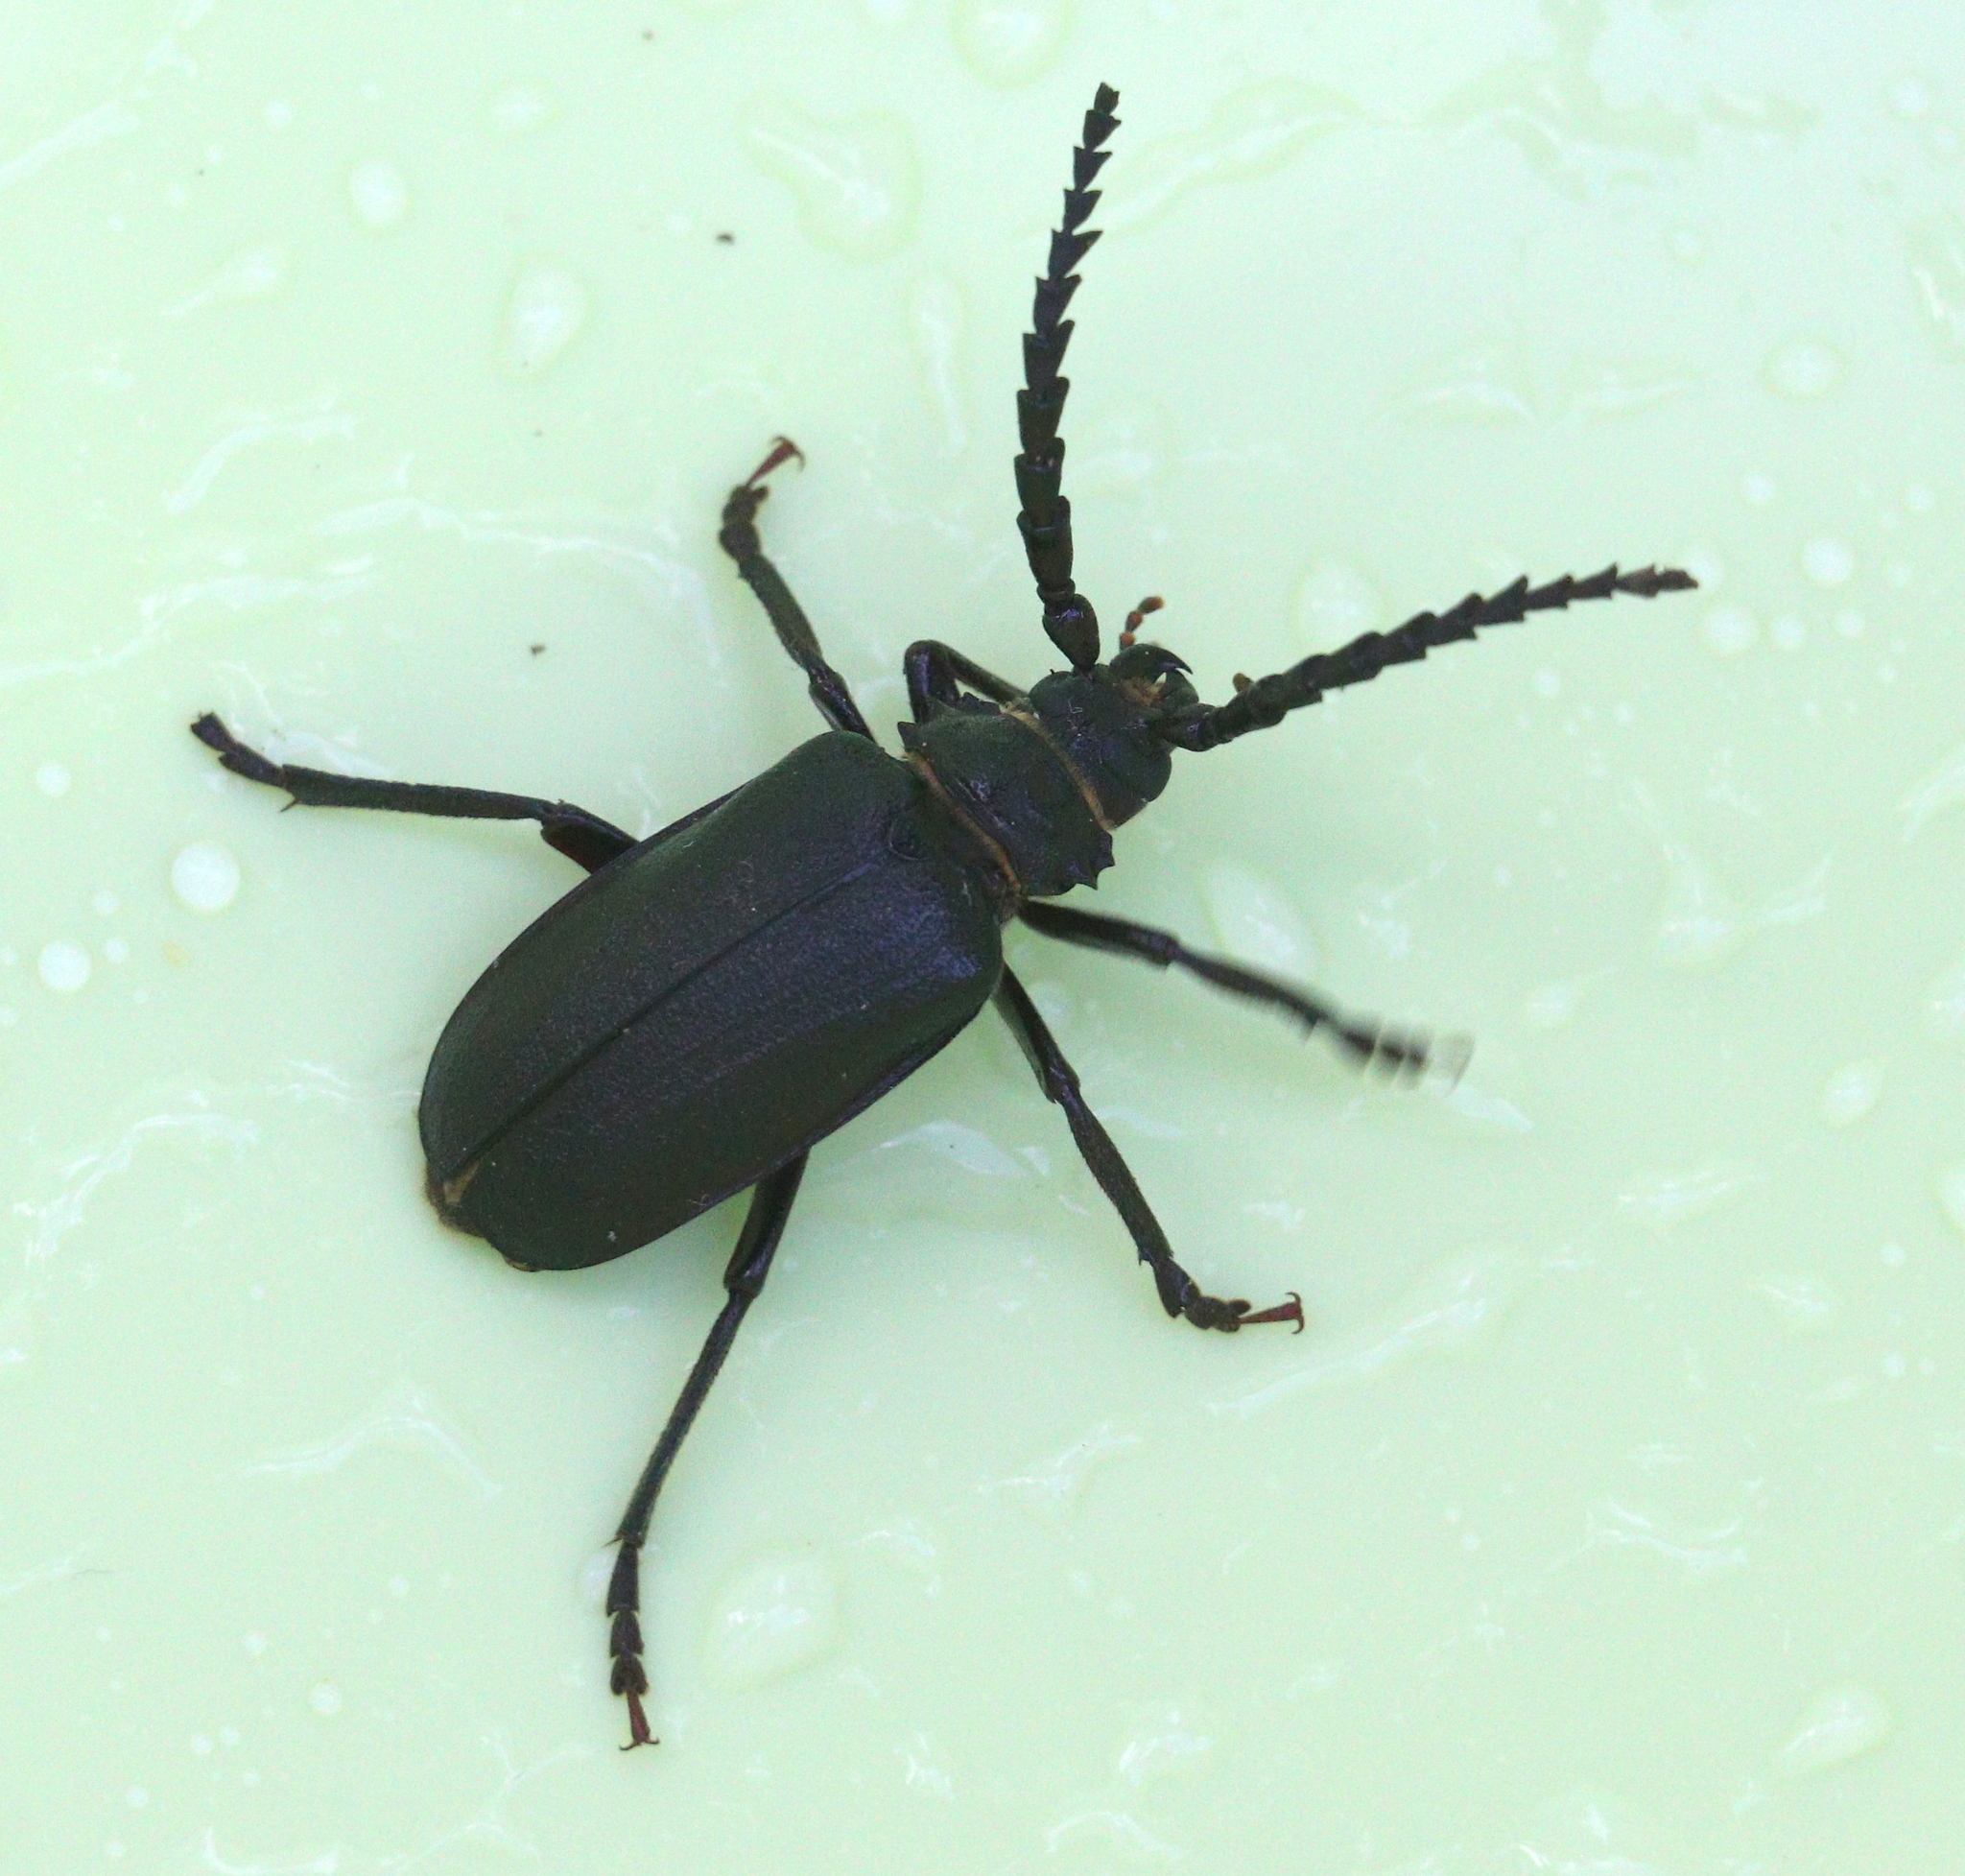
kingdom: Animalia
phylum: Arthropoda
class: Insecta
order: Coleoptera
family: Cerambycidae
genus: Prionus
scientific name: Prionus coriarius
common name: Tanner beetle
